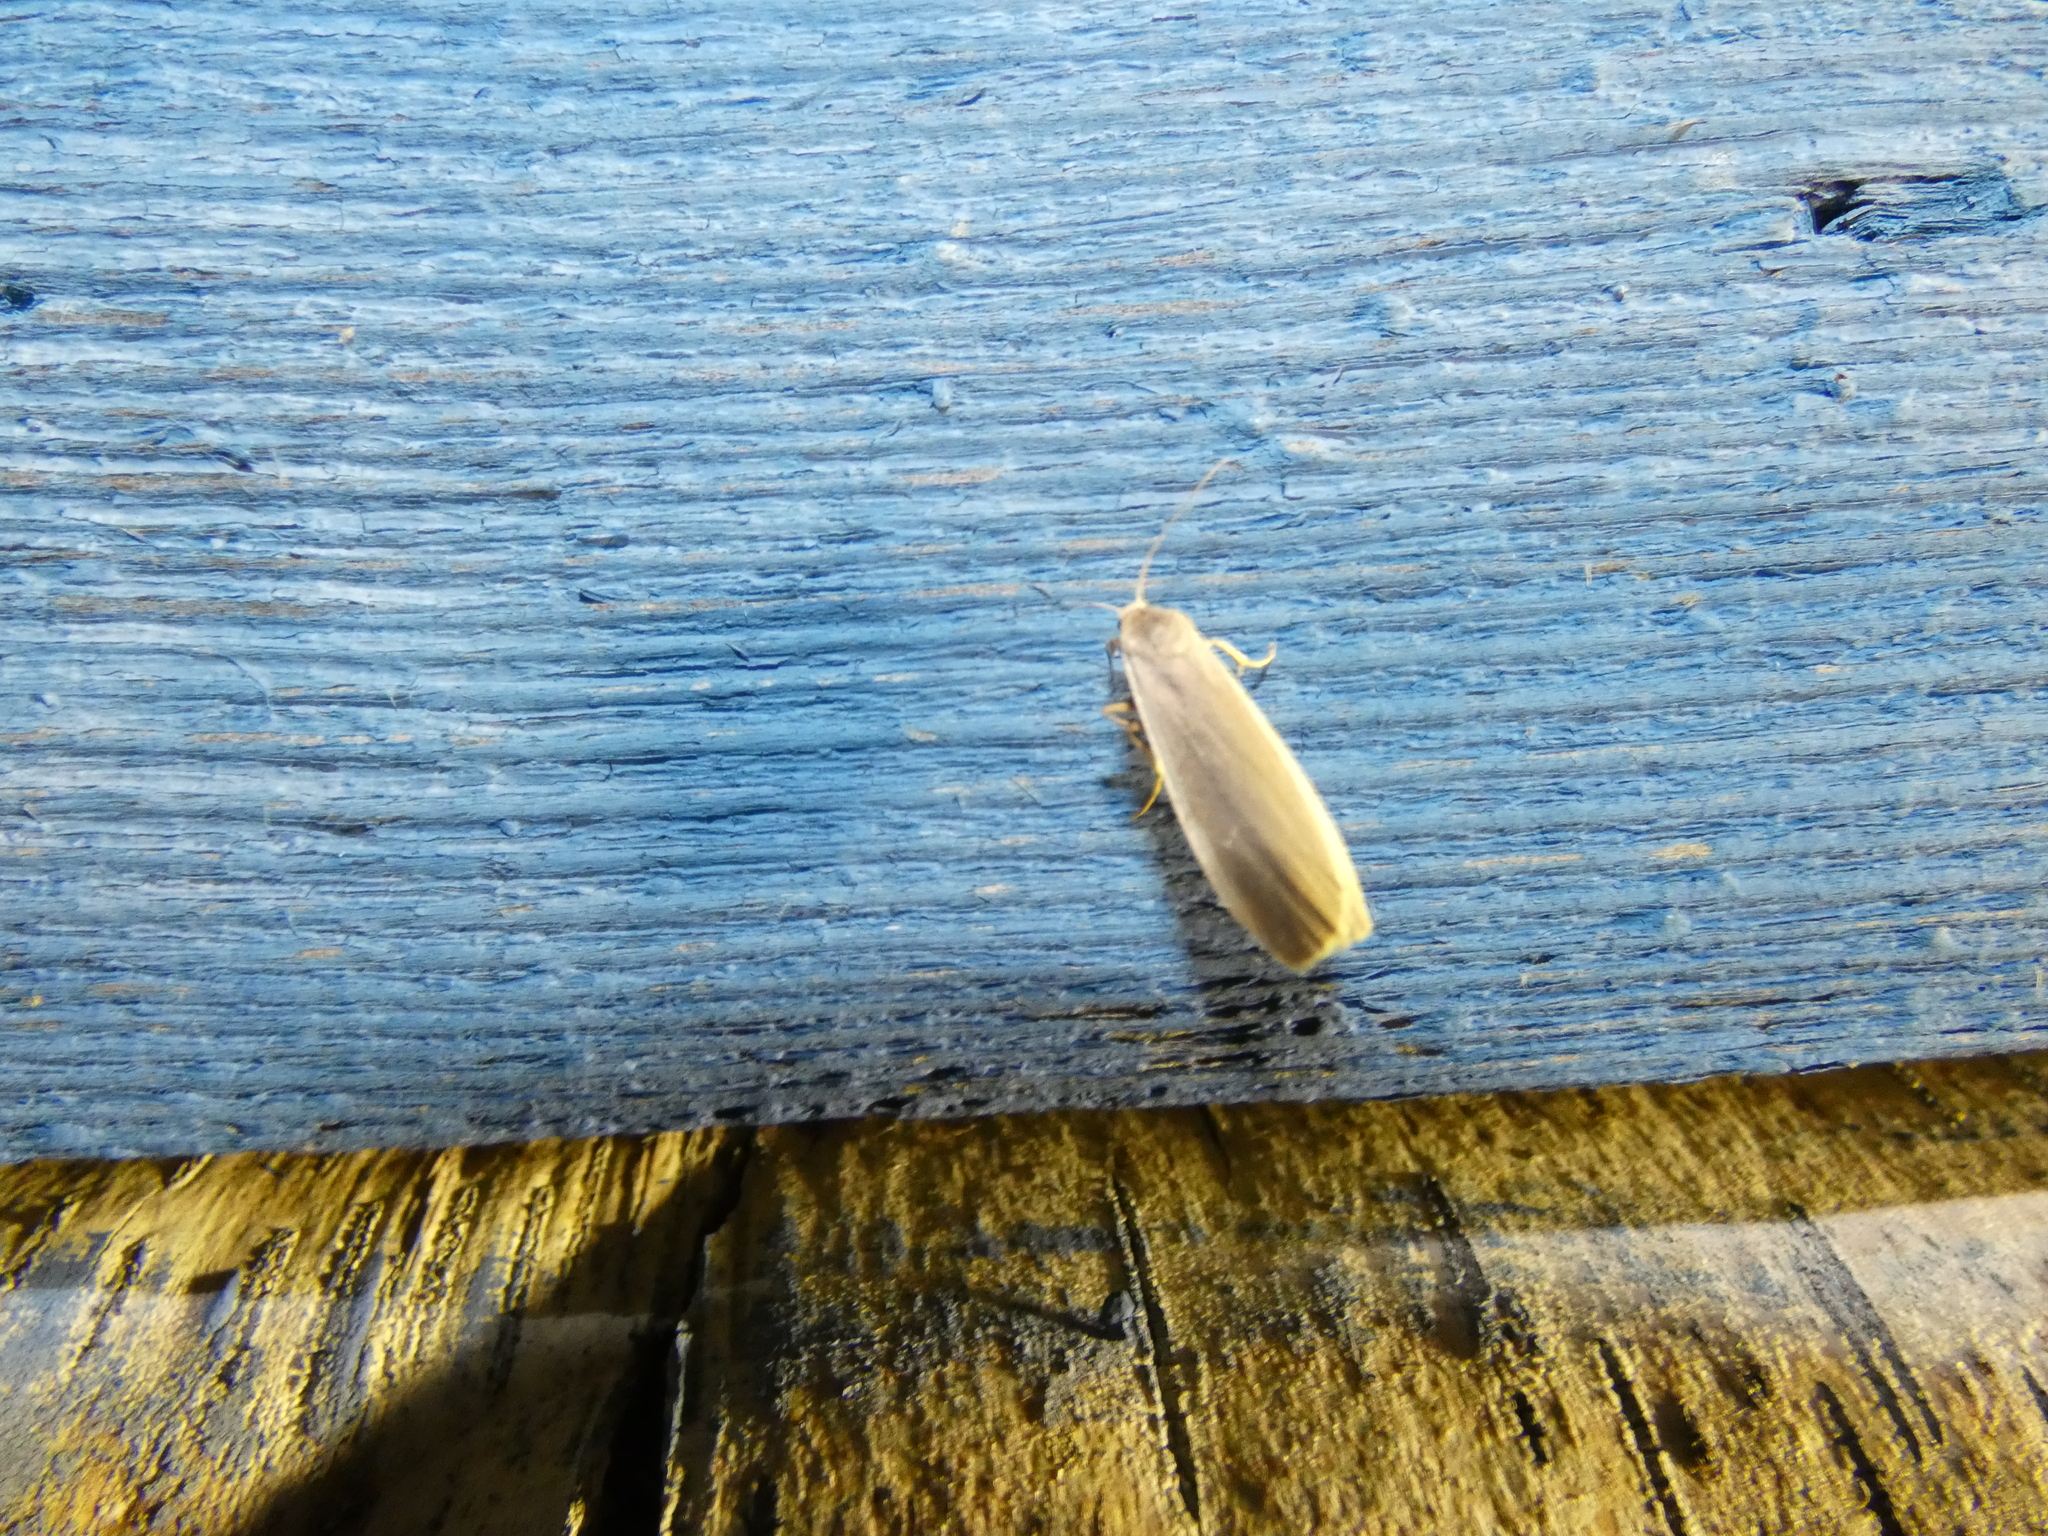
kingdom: Animalia
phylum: Arthropoda
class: Insecta
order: Lepidoptera
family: Erebidae
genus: Nyea
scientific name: Nyea lurideola
